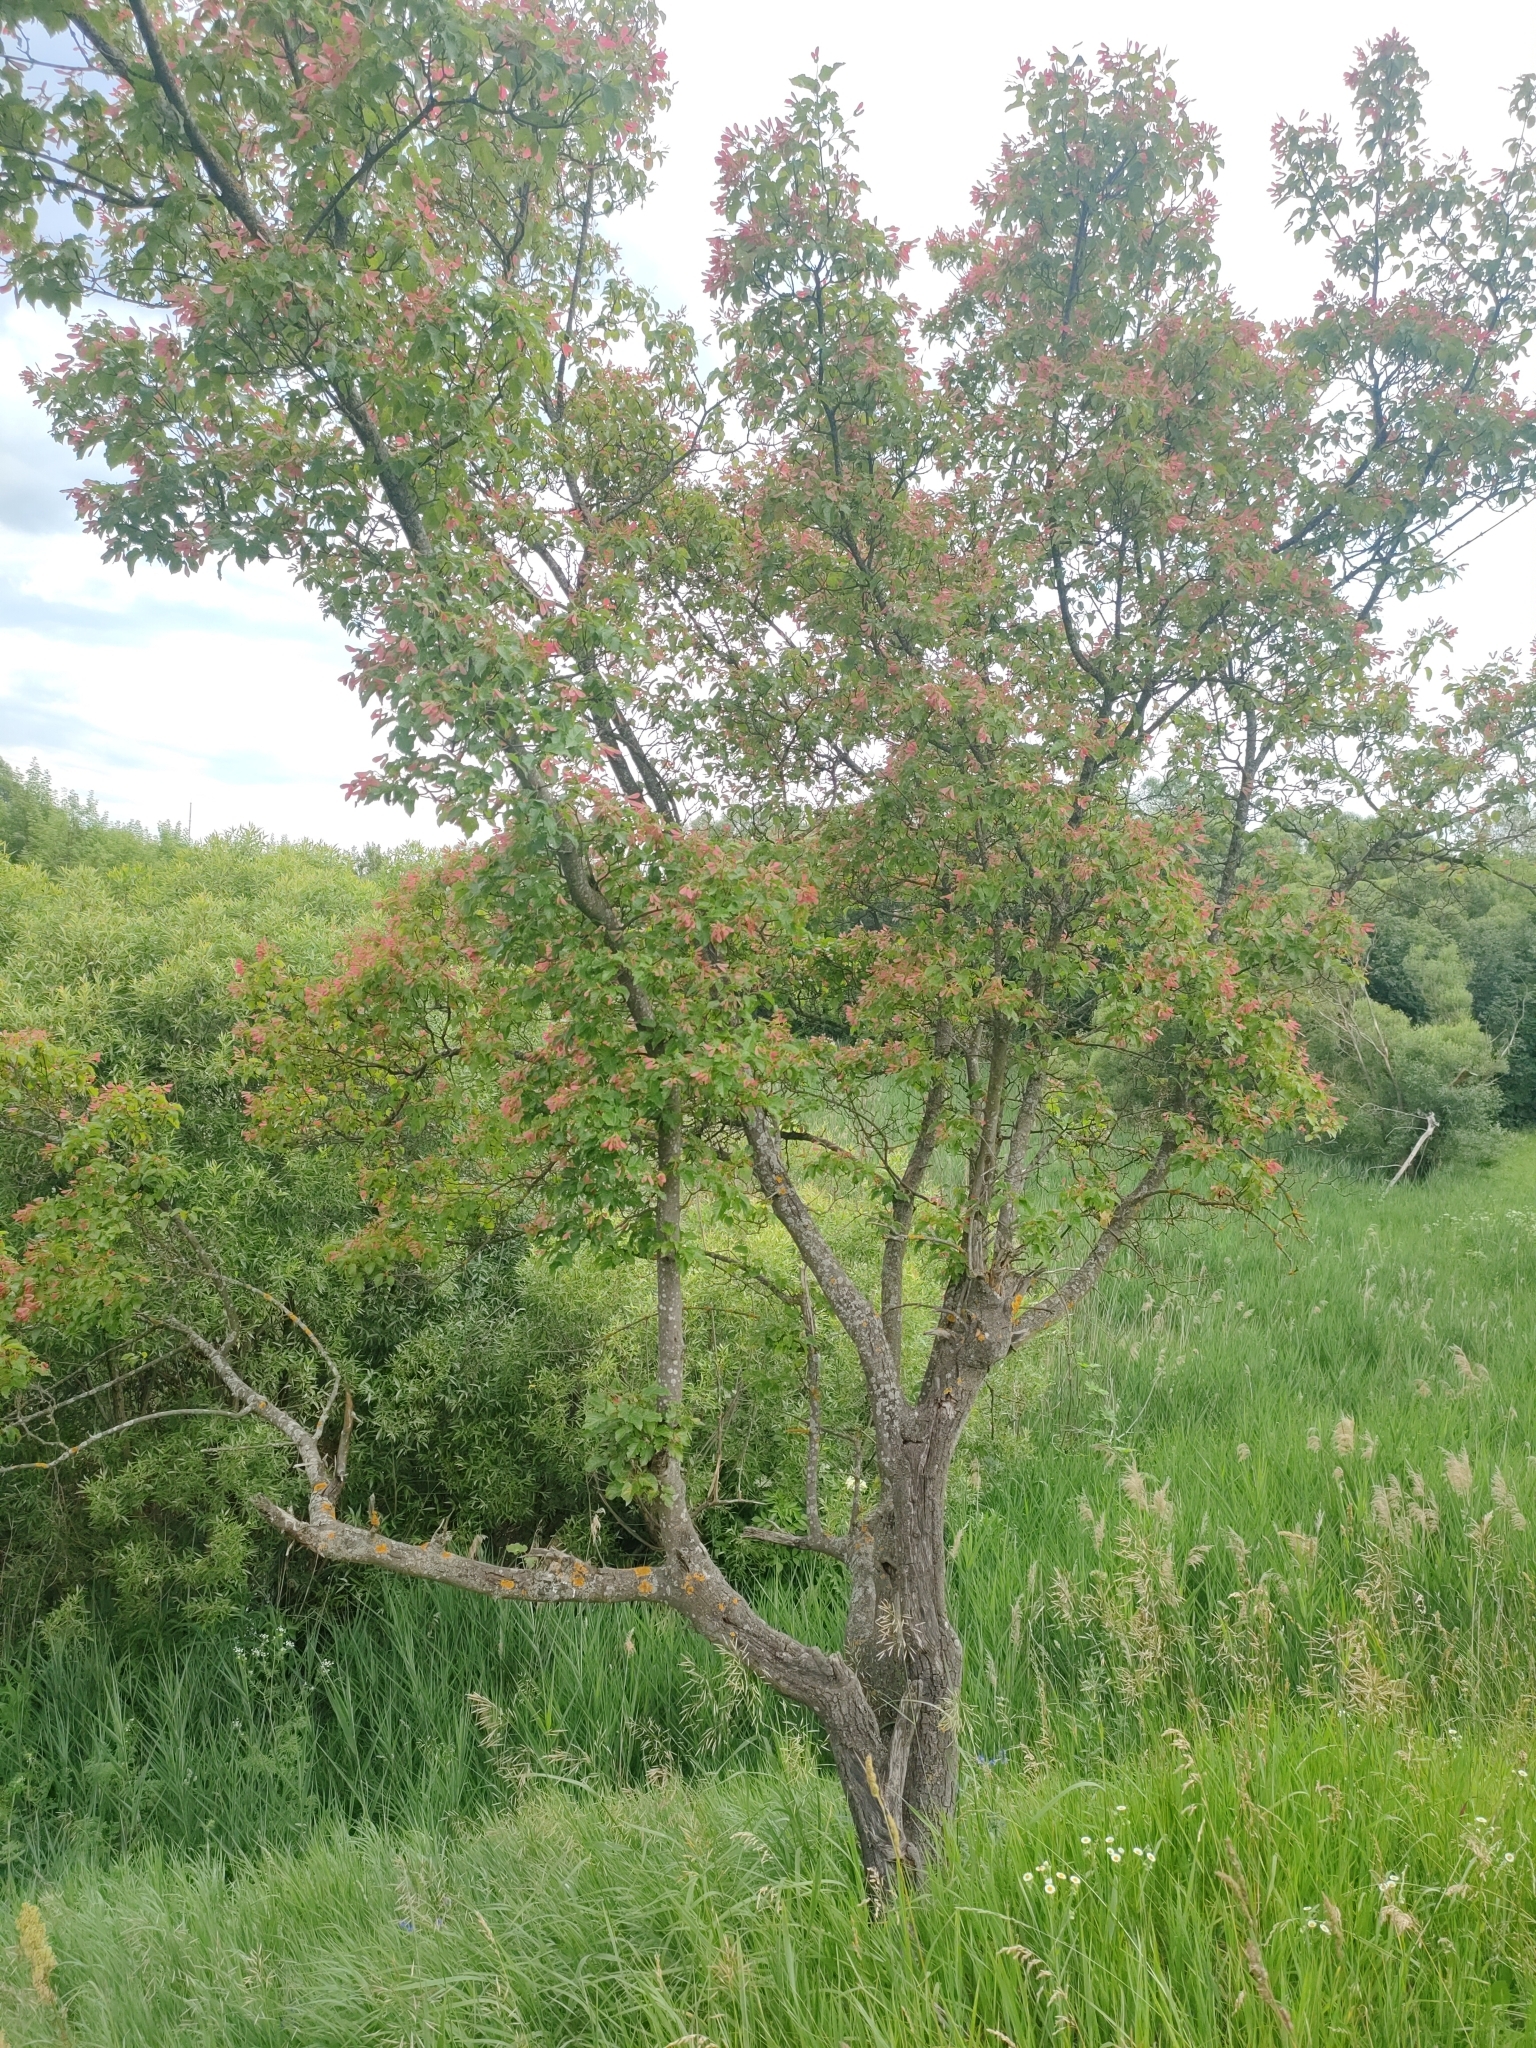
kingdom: Plantae
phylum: Tracheophyta
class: Magnoliopsida
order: Sapindales
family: Sapindaceae
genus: Acer
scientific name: Acer tataricum
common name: Tartar maple
